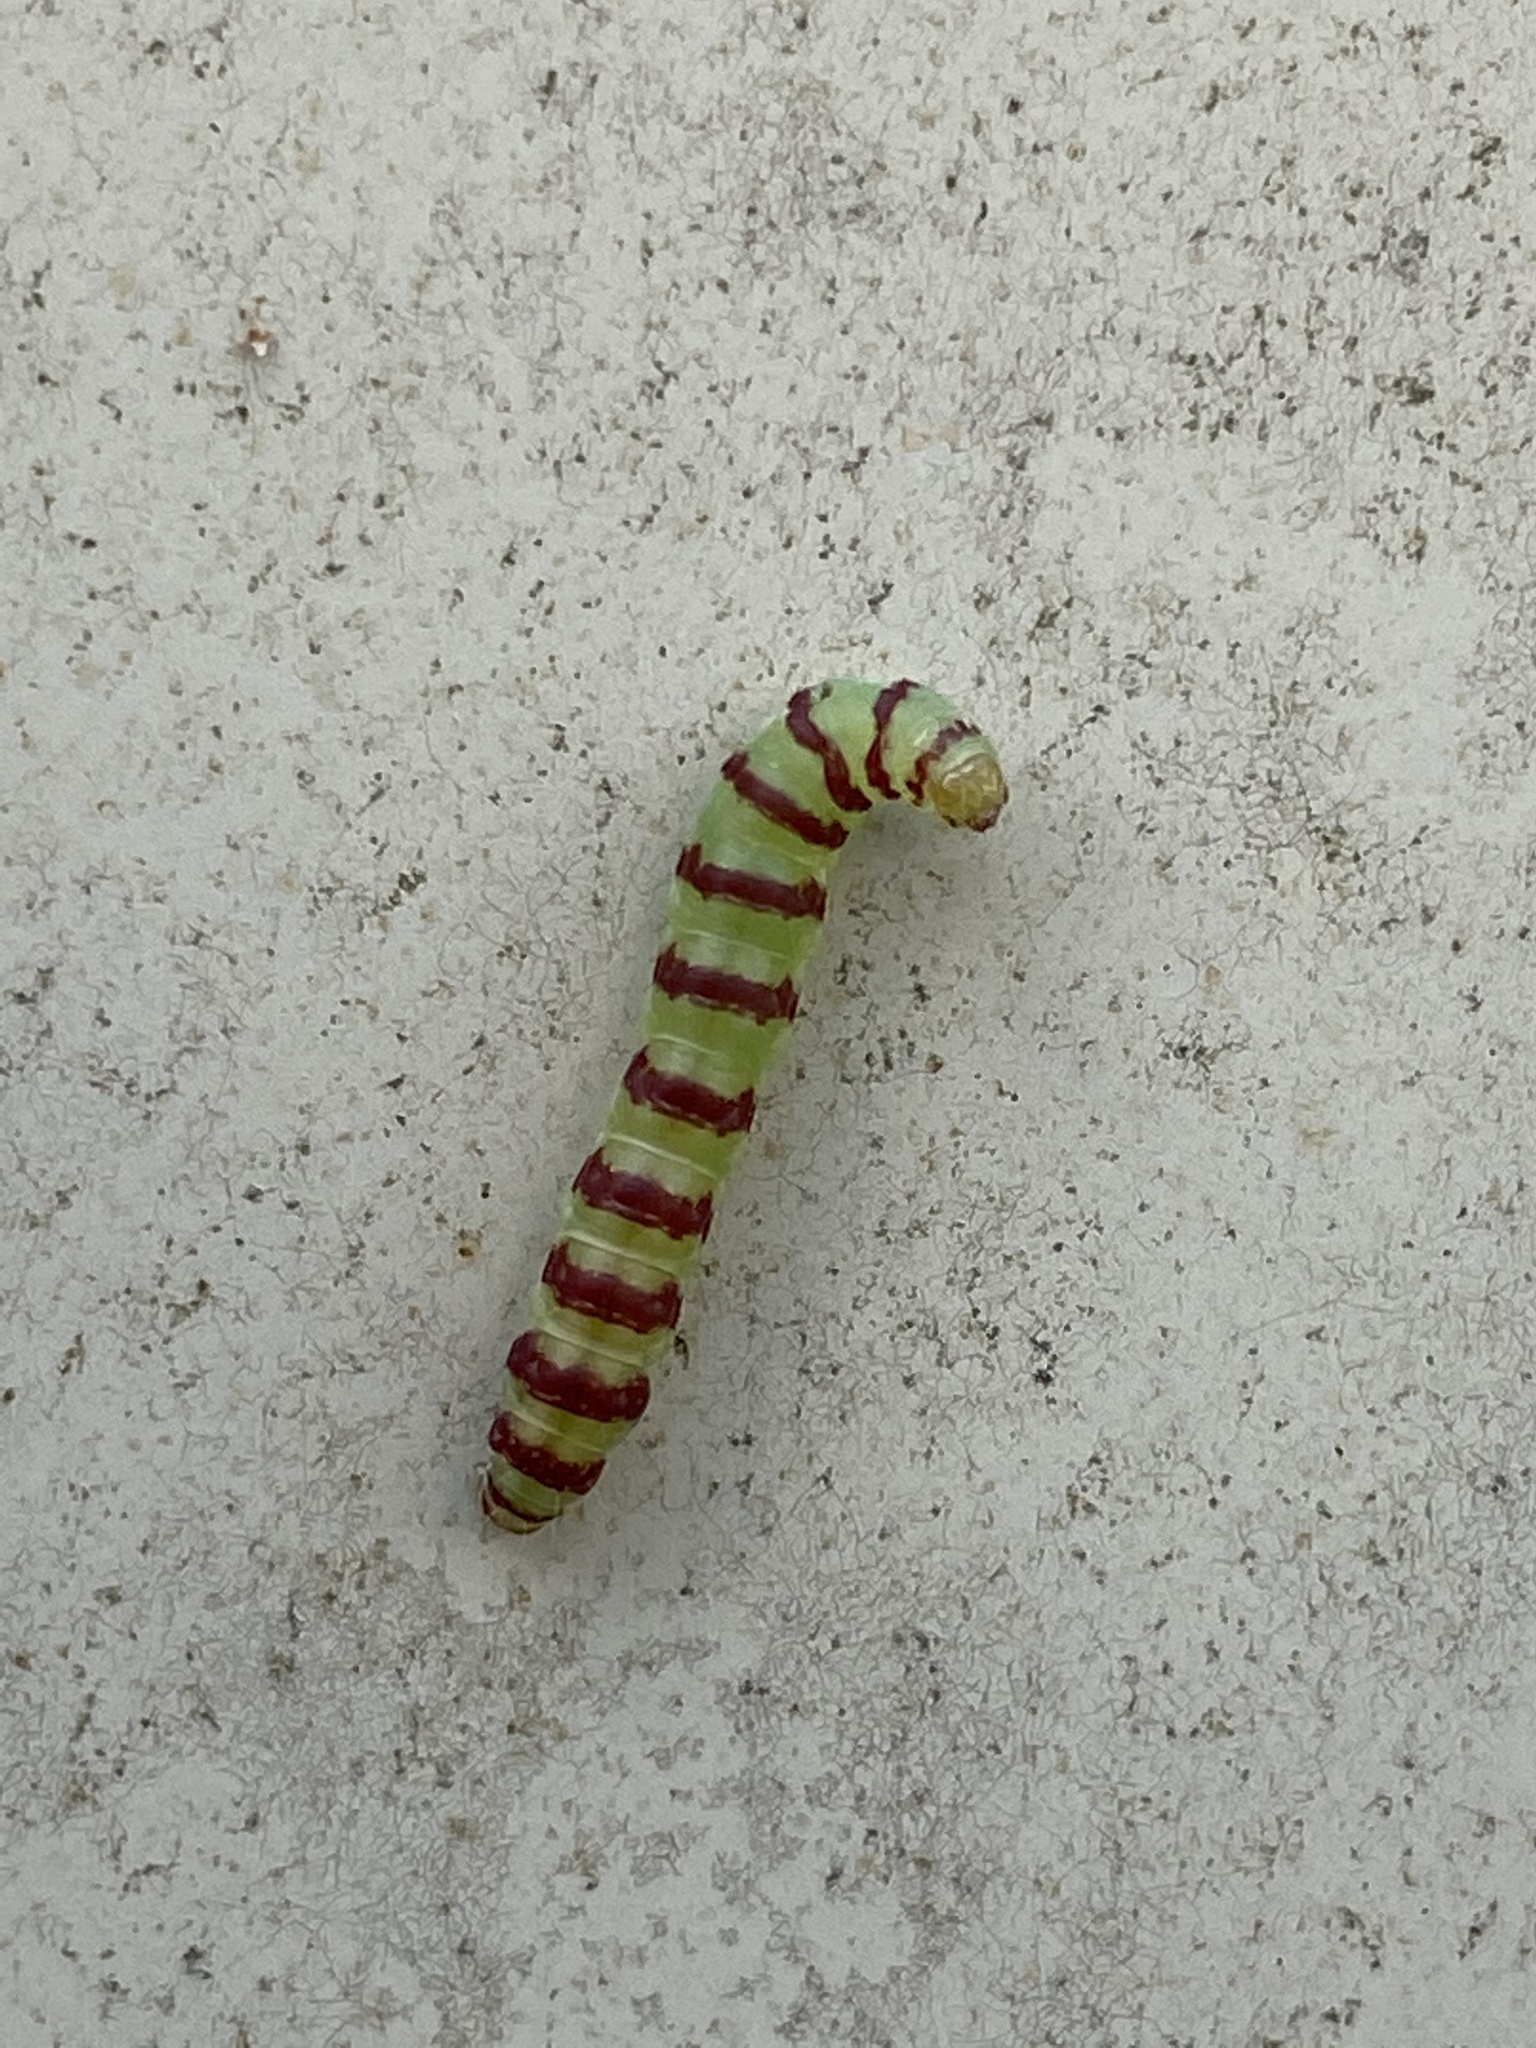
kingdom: Animalia
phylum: Arthropoda
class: Insecta
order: Lepidoptera
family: Gelechiidae
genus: Arogalea
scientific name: Arogalea cristifasciella
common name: White stripe-backed moth
